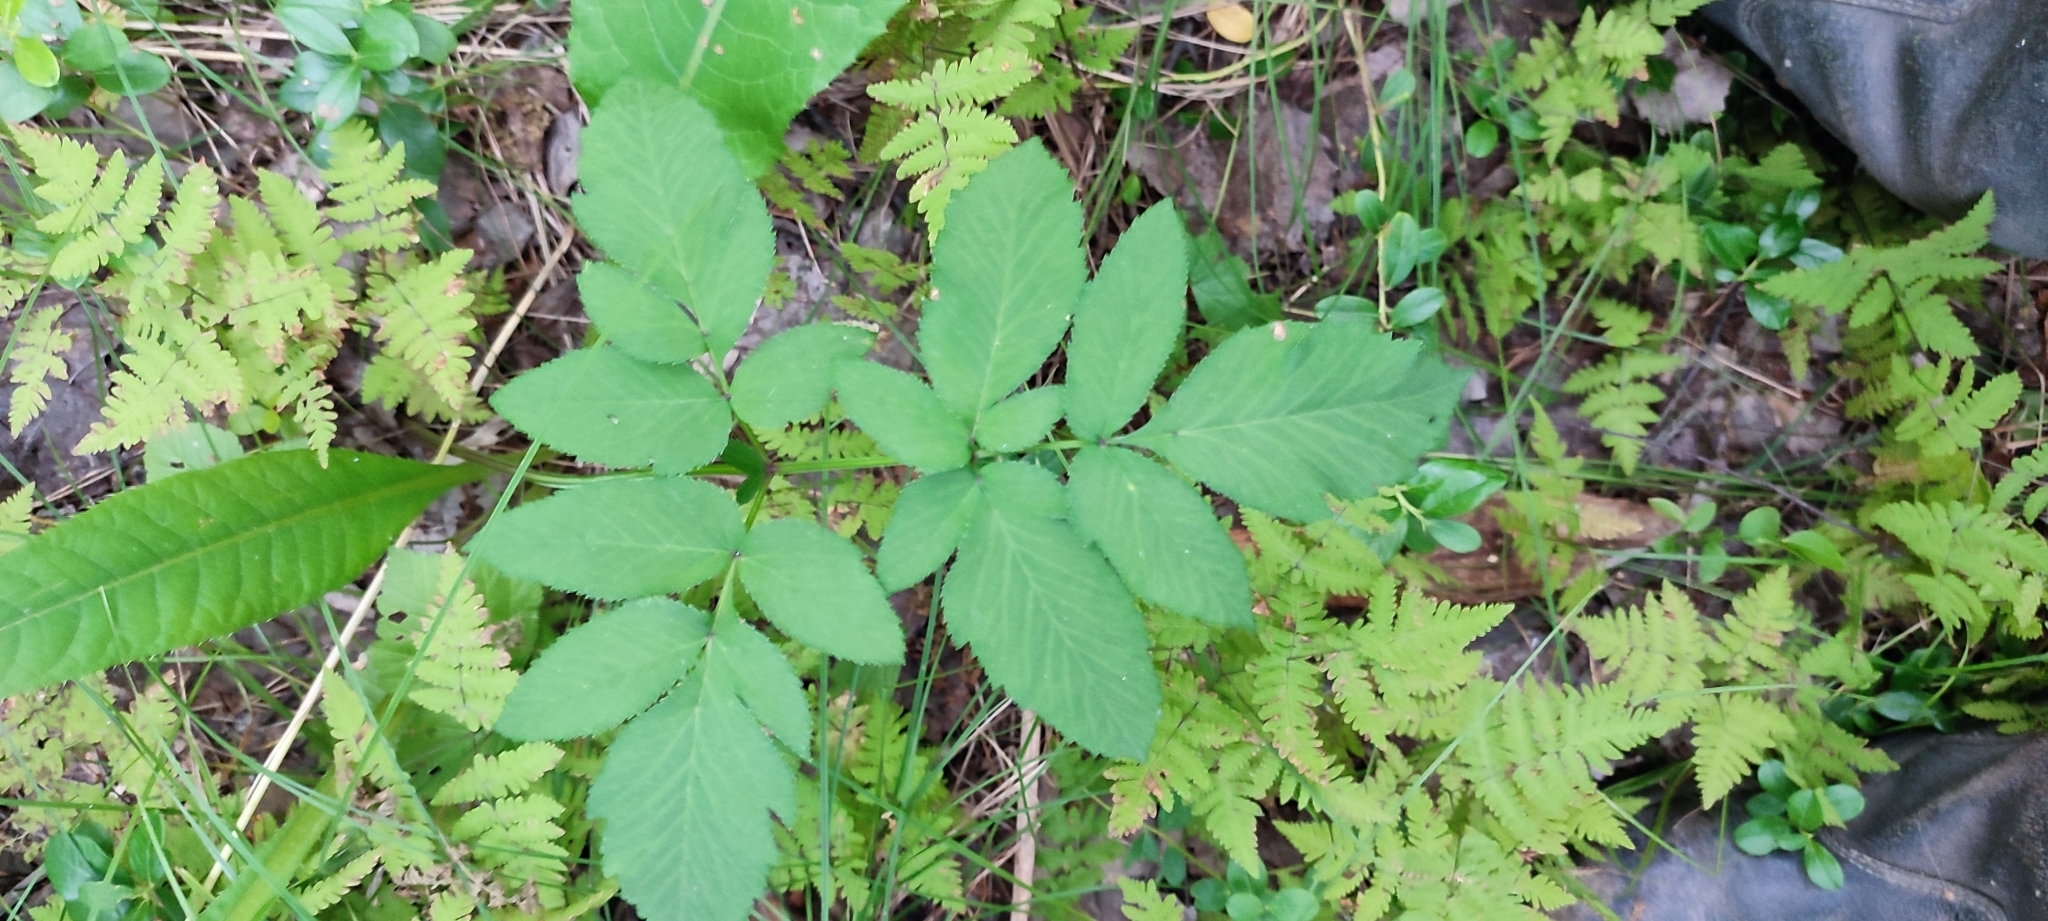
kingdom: Plantae
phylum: Tracheophyta
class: Magnoliopsida
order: Apiales
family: Apiaceae
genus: Angelica
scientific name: Angelica sylvestris
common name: Wild angelica
